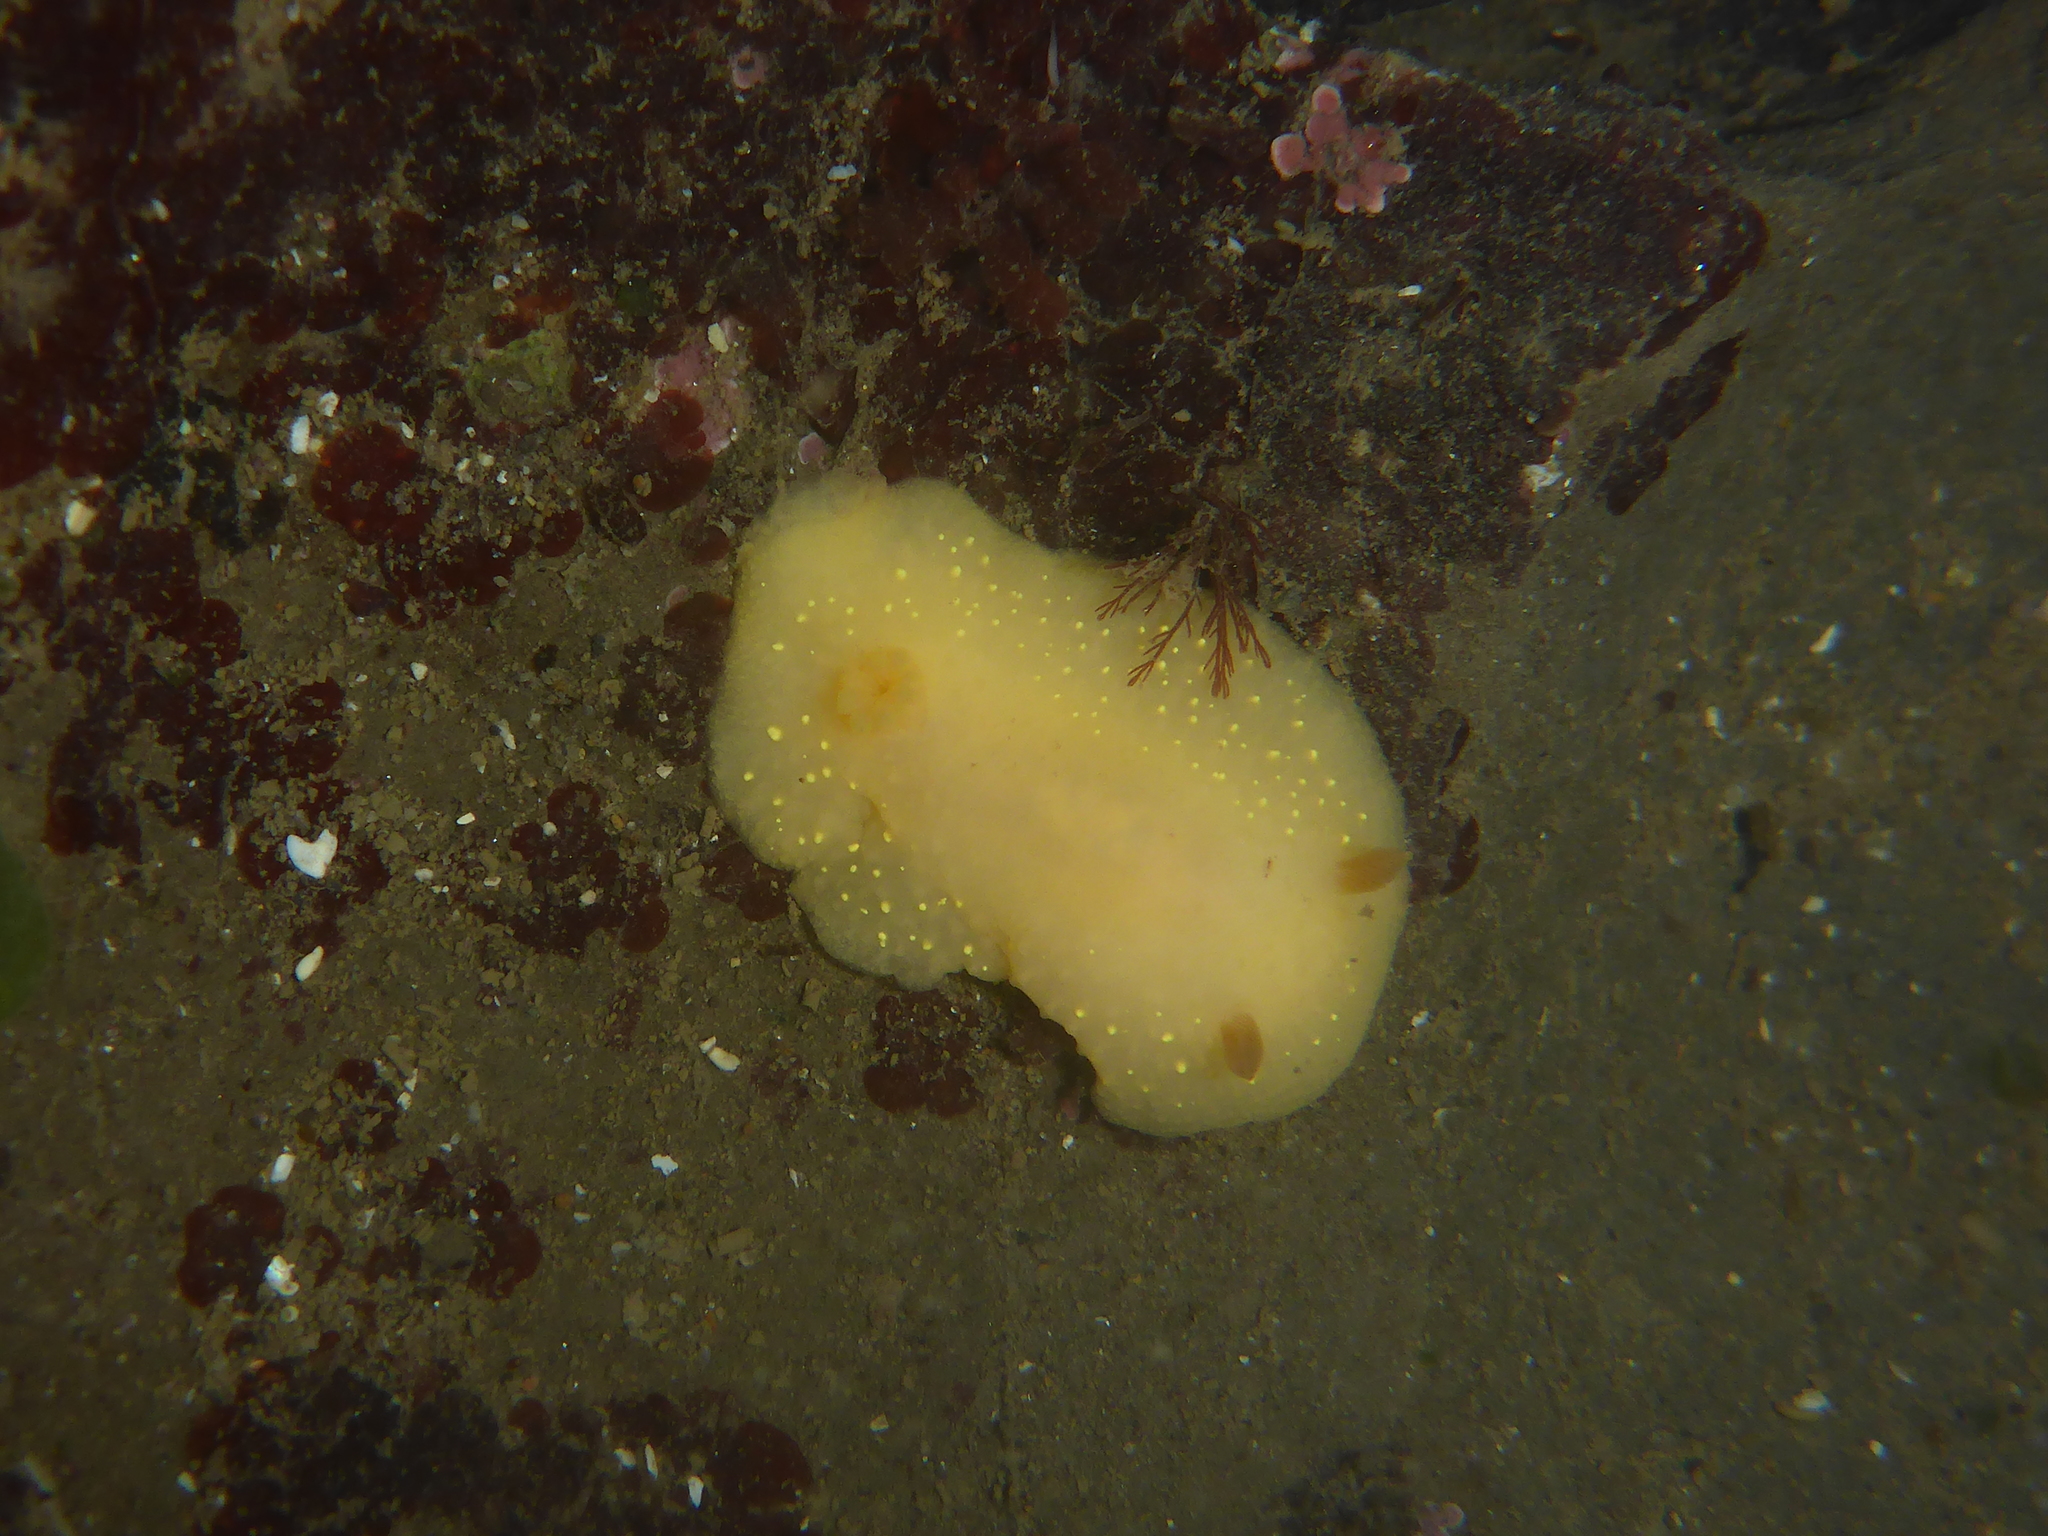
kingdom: Animalia
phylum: Mollusca
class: Gastropoda
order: Nudibranchia
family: Cadlinidae
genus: Cadlina
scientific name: Cadlina modesta
